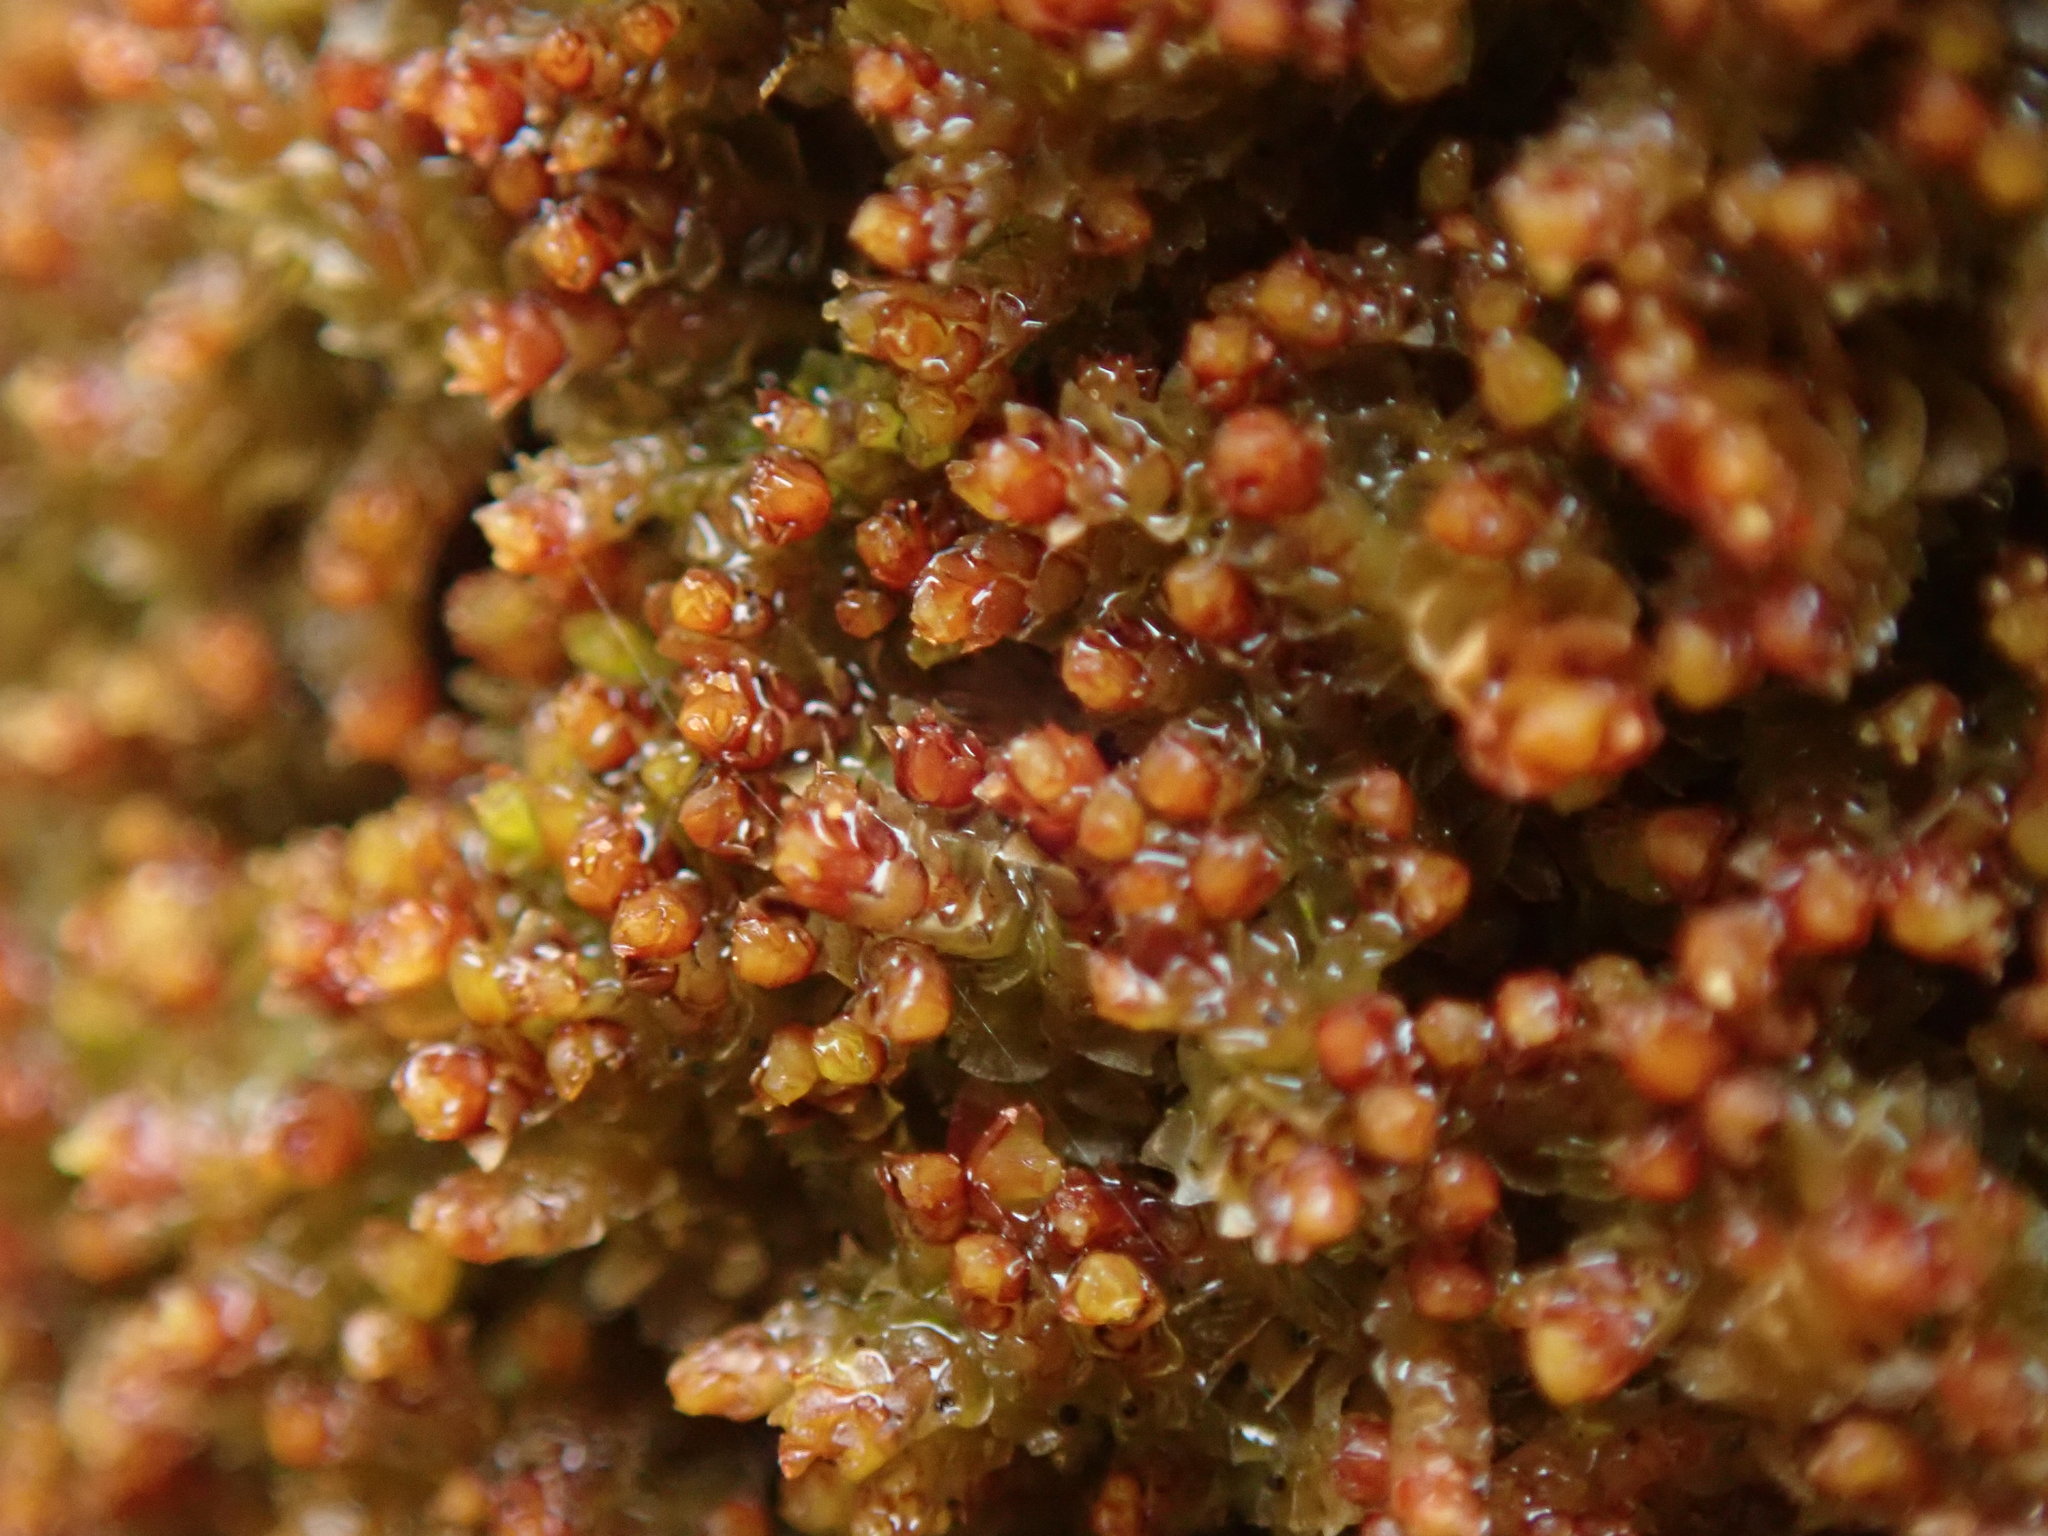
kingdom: Plantae
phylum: Marchantiophyta
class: Jungermanniopsida
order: Jungermanniales
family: Gymnomitriaceae
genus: Marsupella
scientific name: Marsupella emarginata
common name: Notched rustwort
